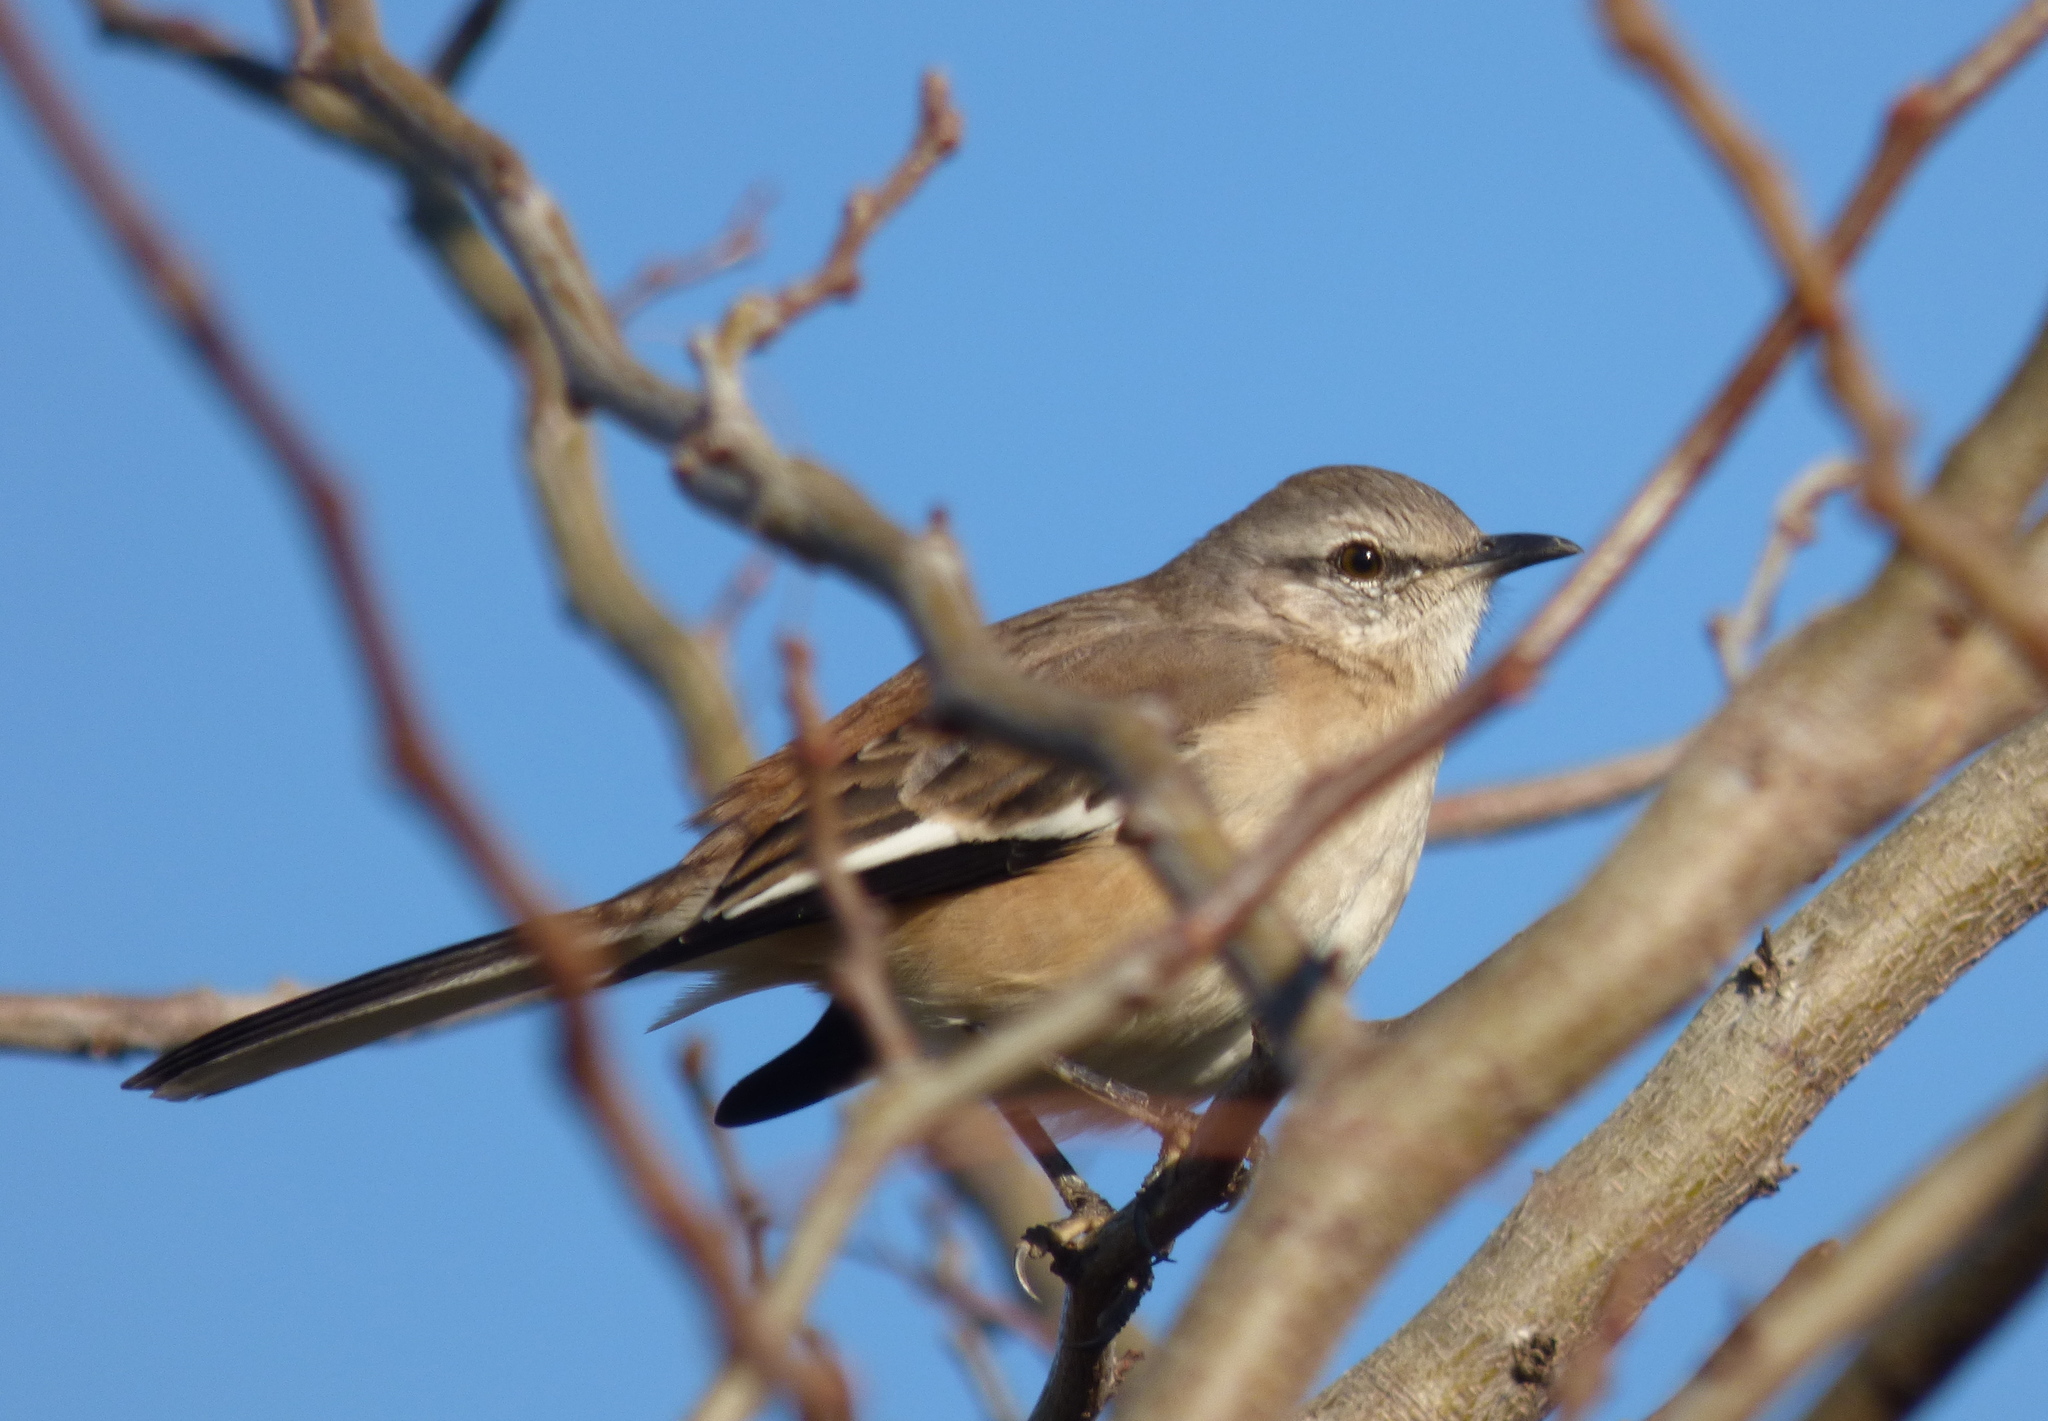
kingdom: Animalia
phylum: Chordata
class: Aves
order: Passeriformes
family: Mimidae
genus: Mimus
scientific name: Mimus triurus
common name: White-banded mockingbird
